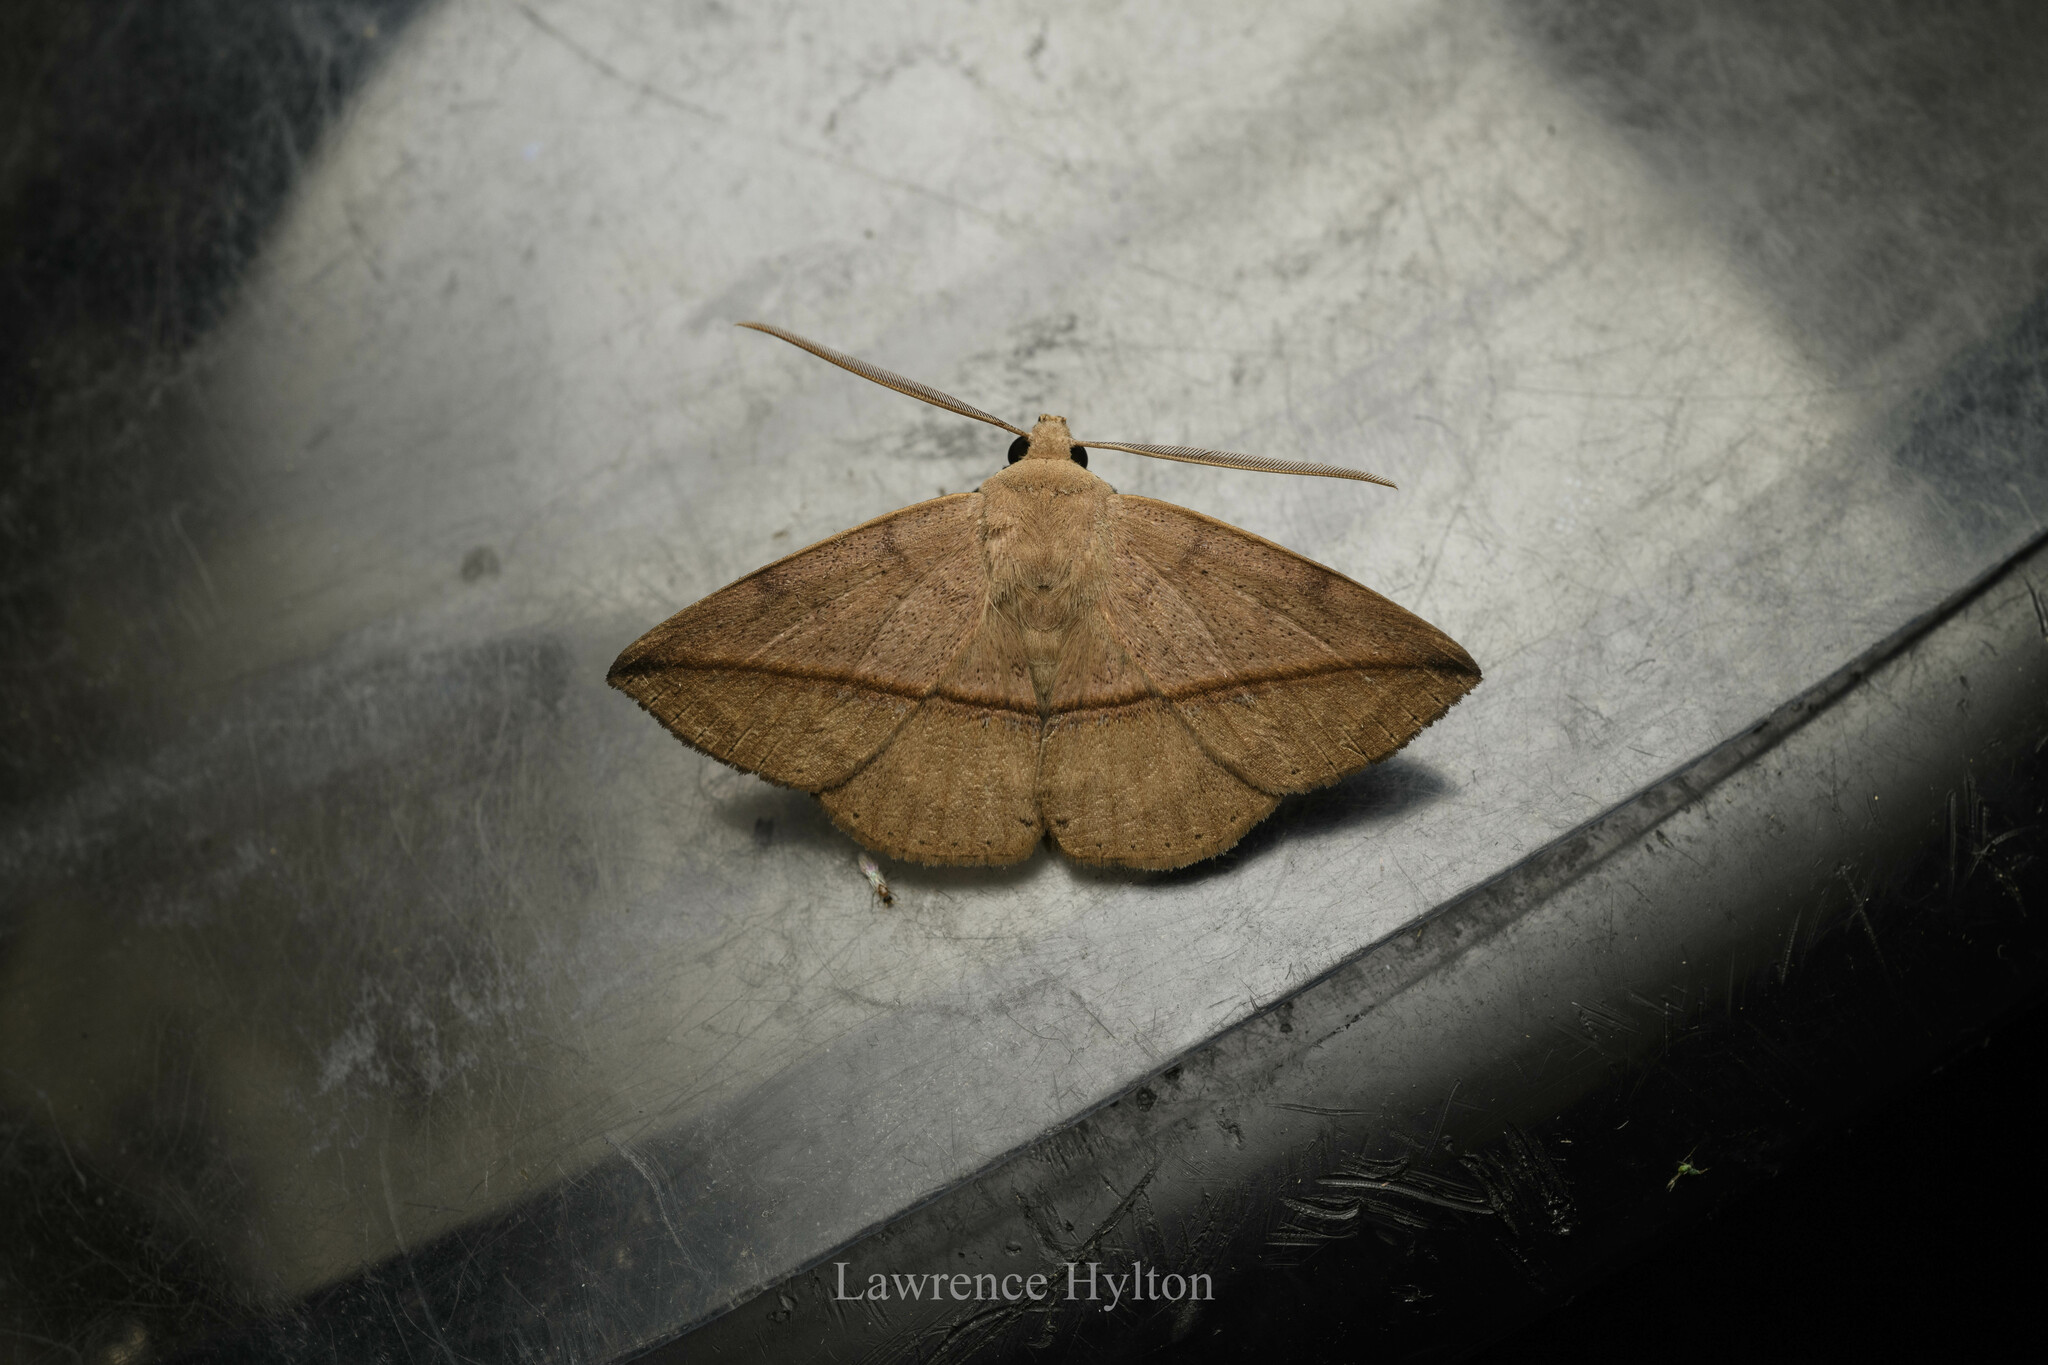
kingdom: Animalia
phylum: Arthropoda
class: Insecta
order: Lepidoptera
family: Erebidae
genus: Ugia
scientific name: Ugia purpurea
